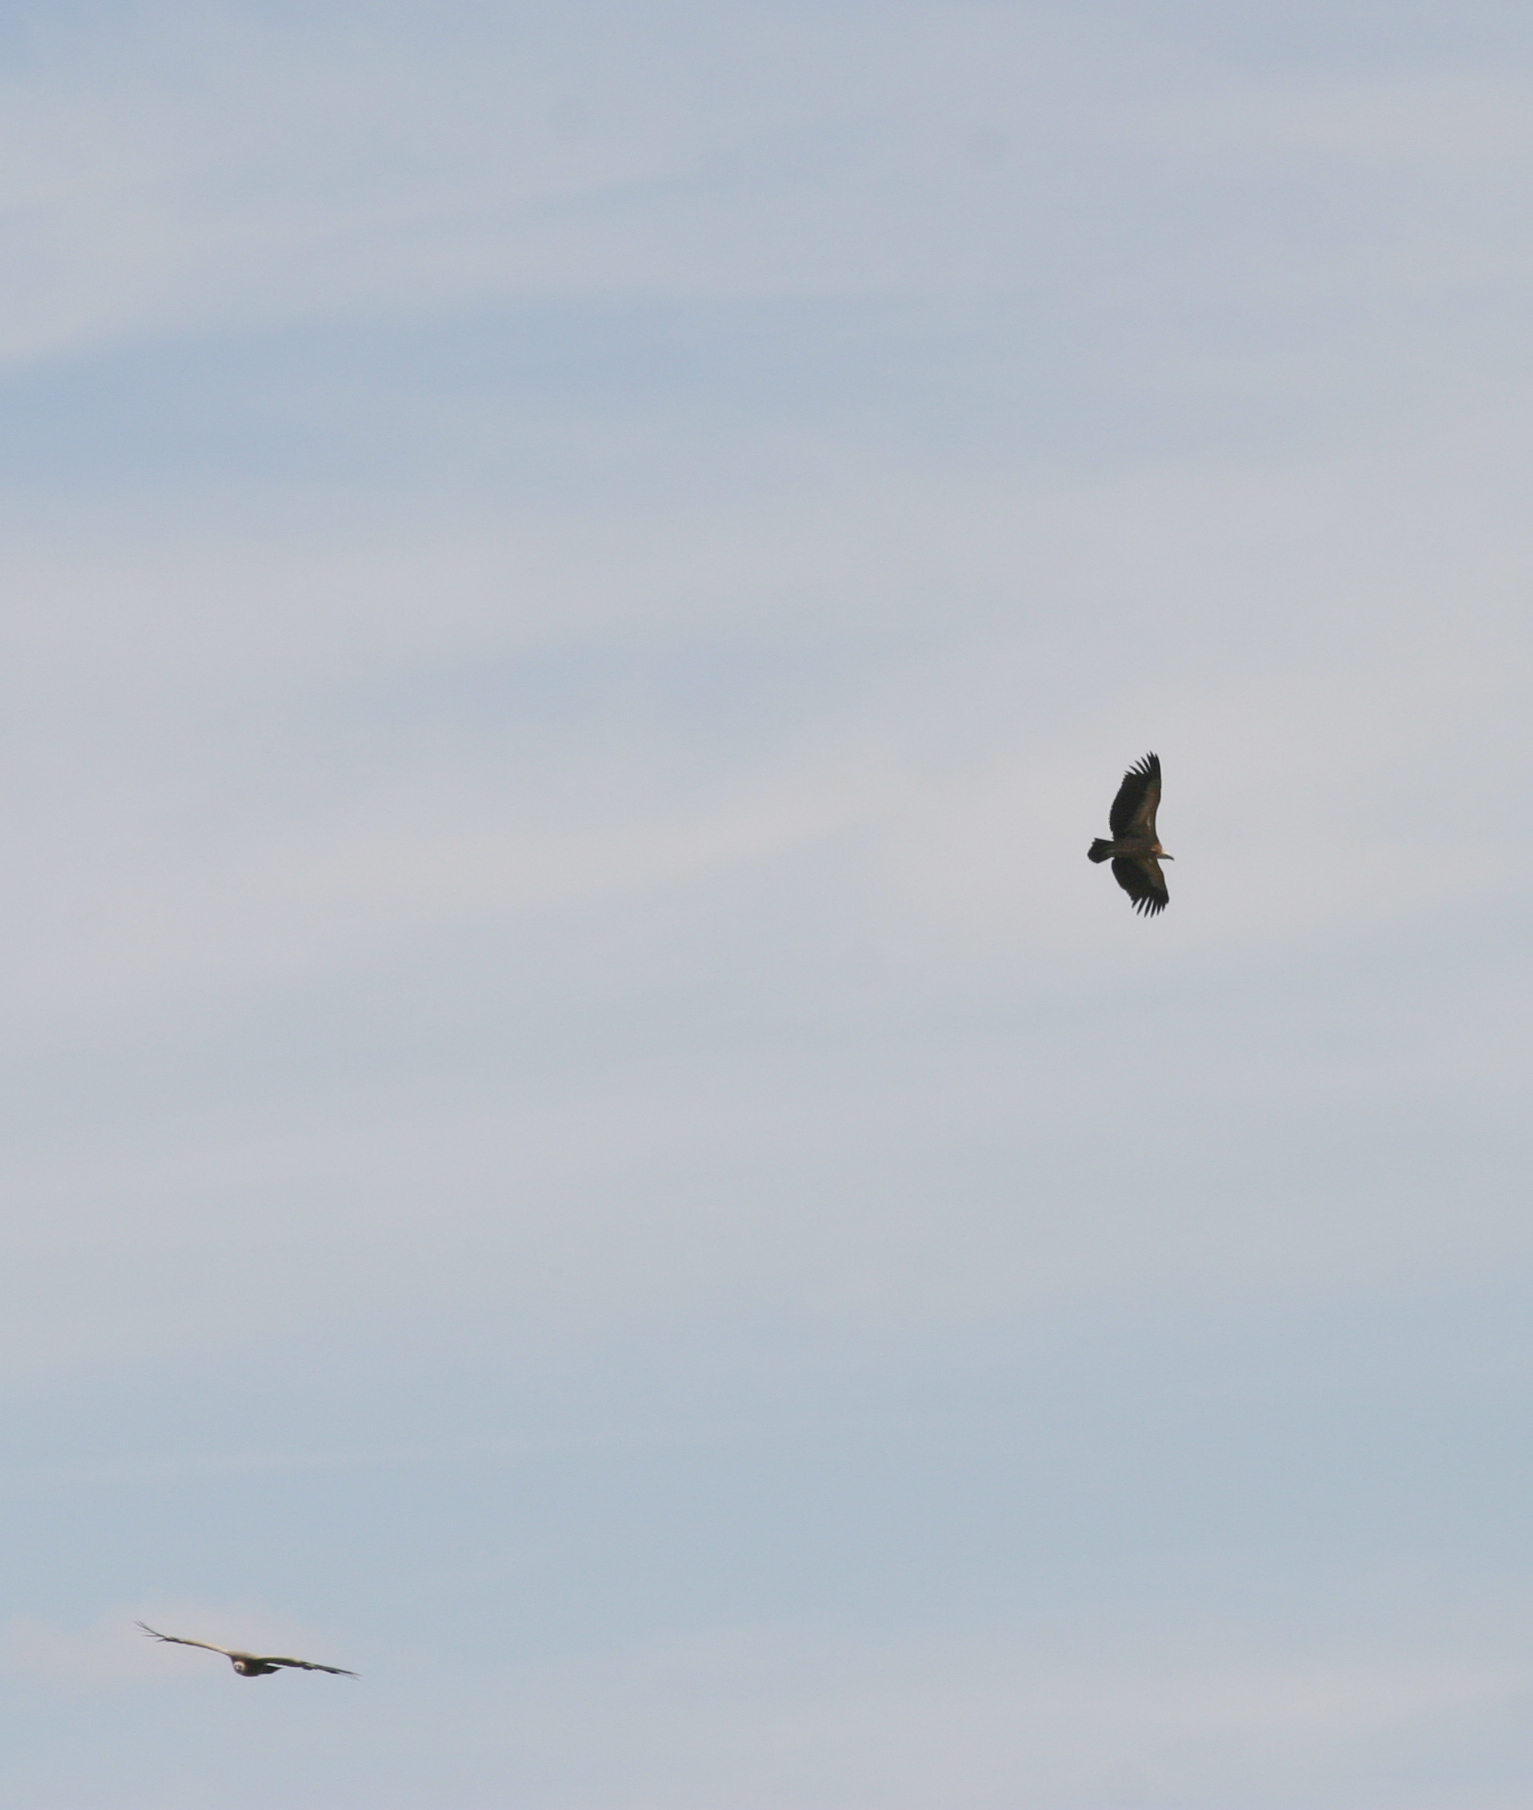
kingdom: Animalia
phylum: Chordata
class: Aves
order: Accipitriformes
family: Accipitridae
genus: Gyps
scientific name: Gyps fulvus
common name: Griffon vulture
